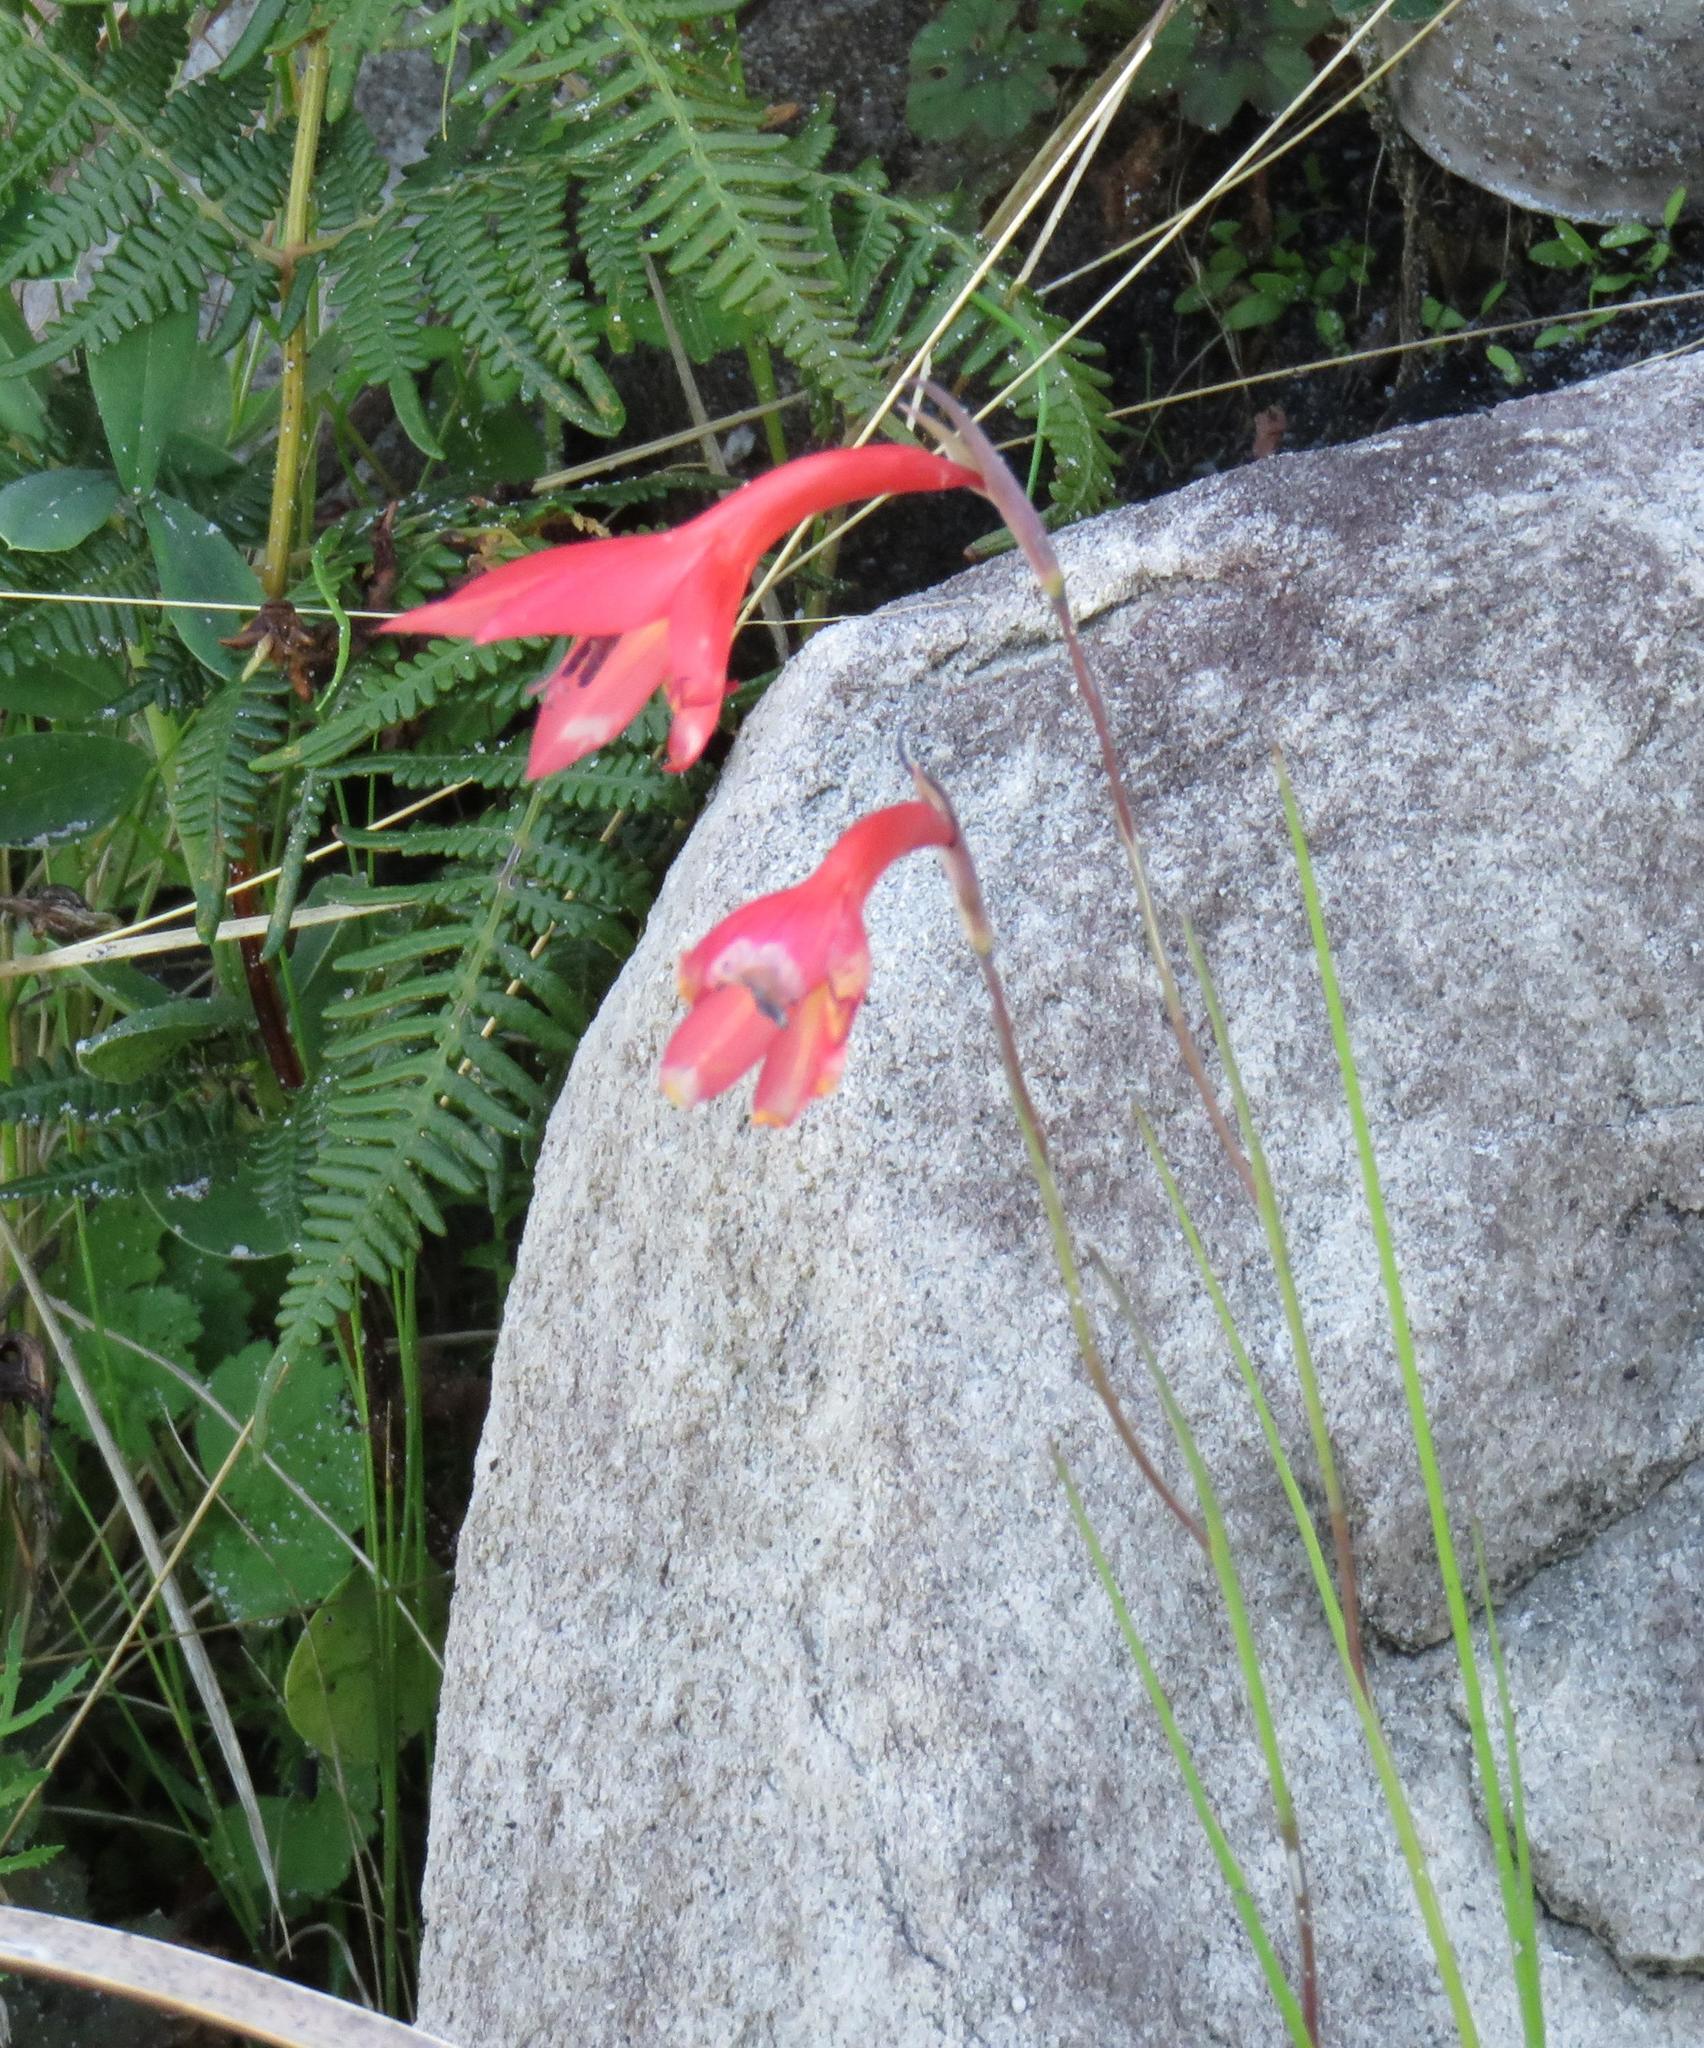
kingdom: Plantae
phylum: Tracheophyta
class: Liliopsida
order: Asparagales
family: Iridaceae
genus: Gladiolus
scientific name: Gladiolus priorii
